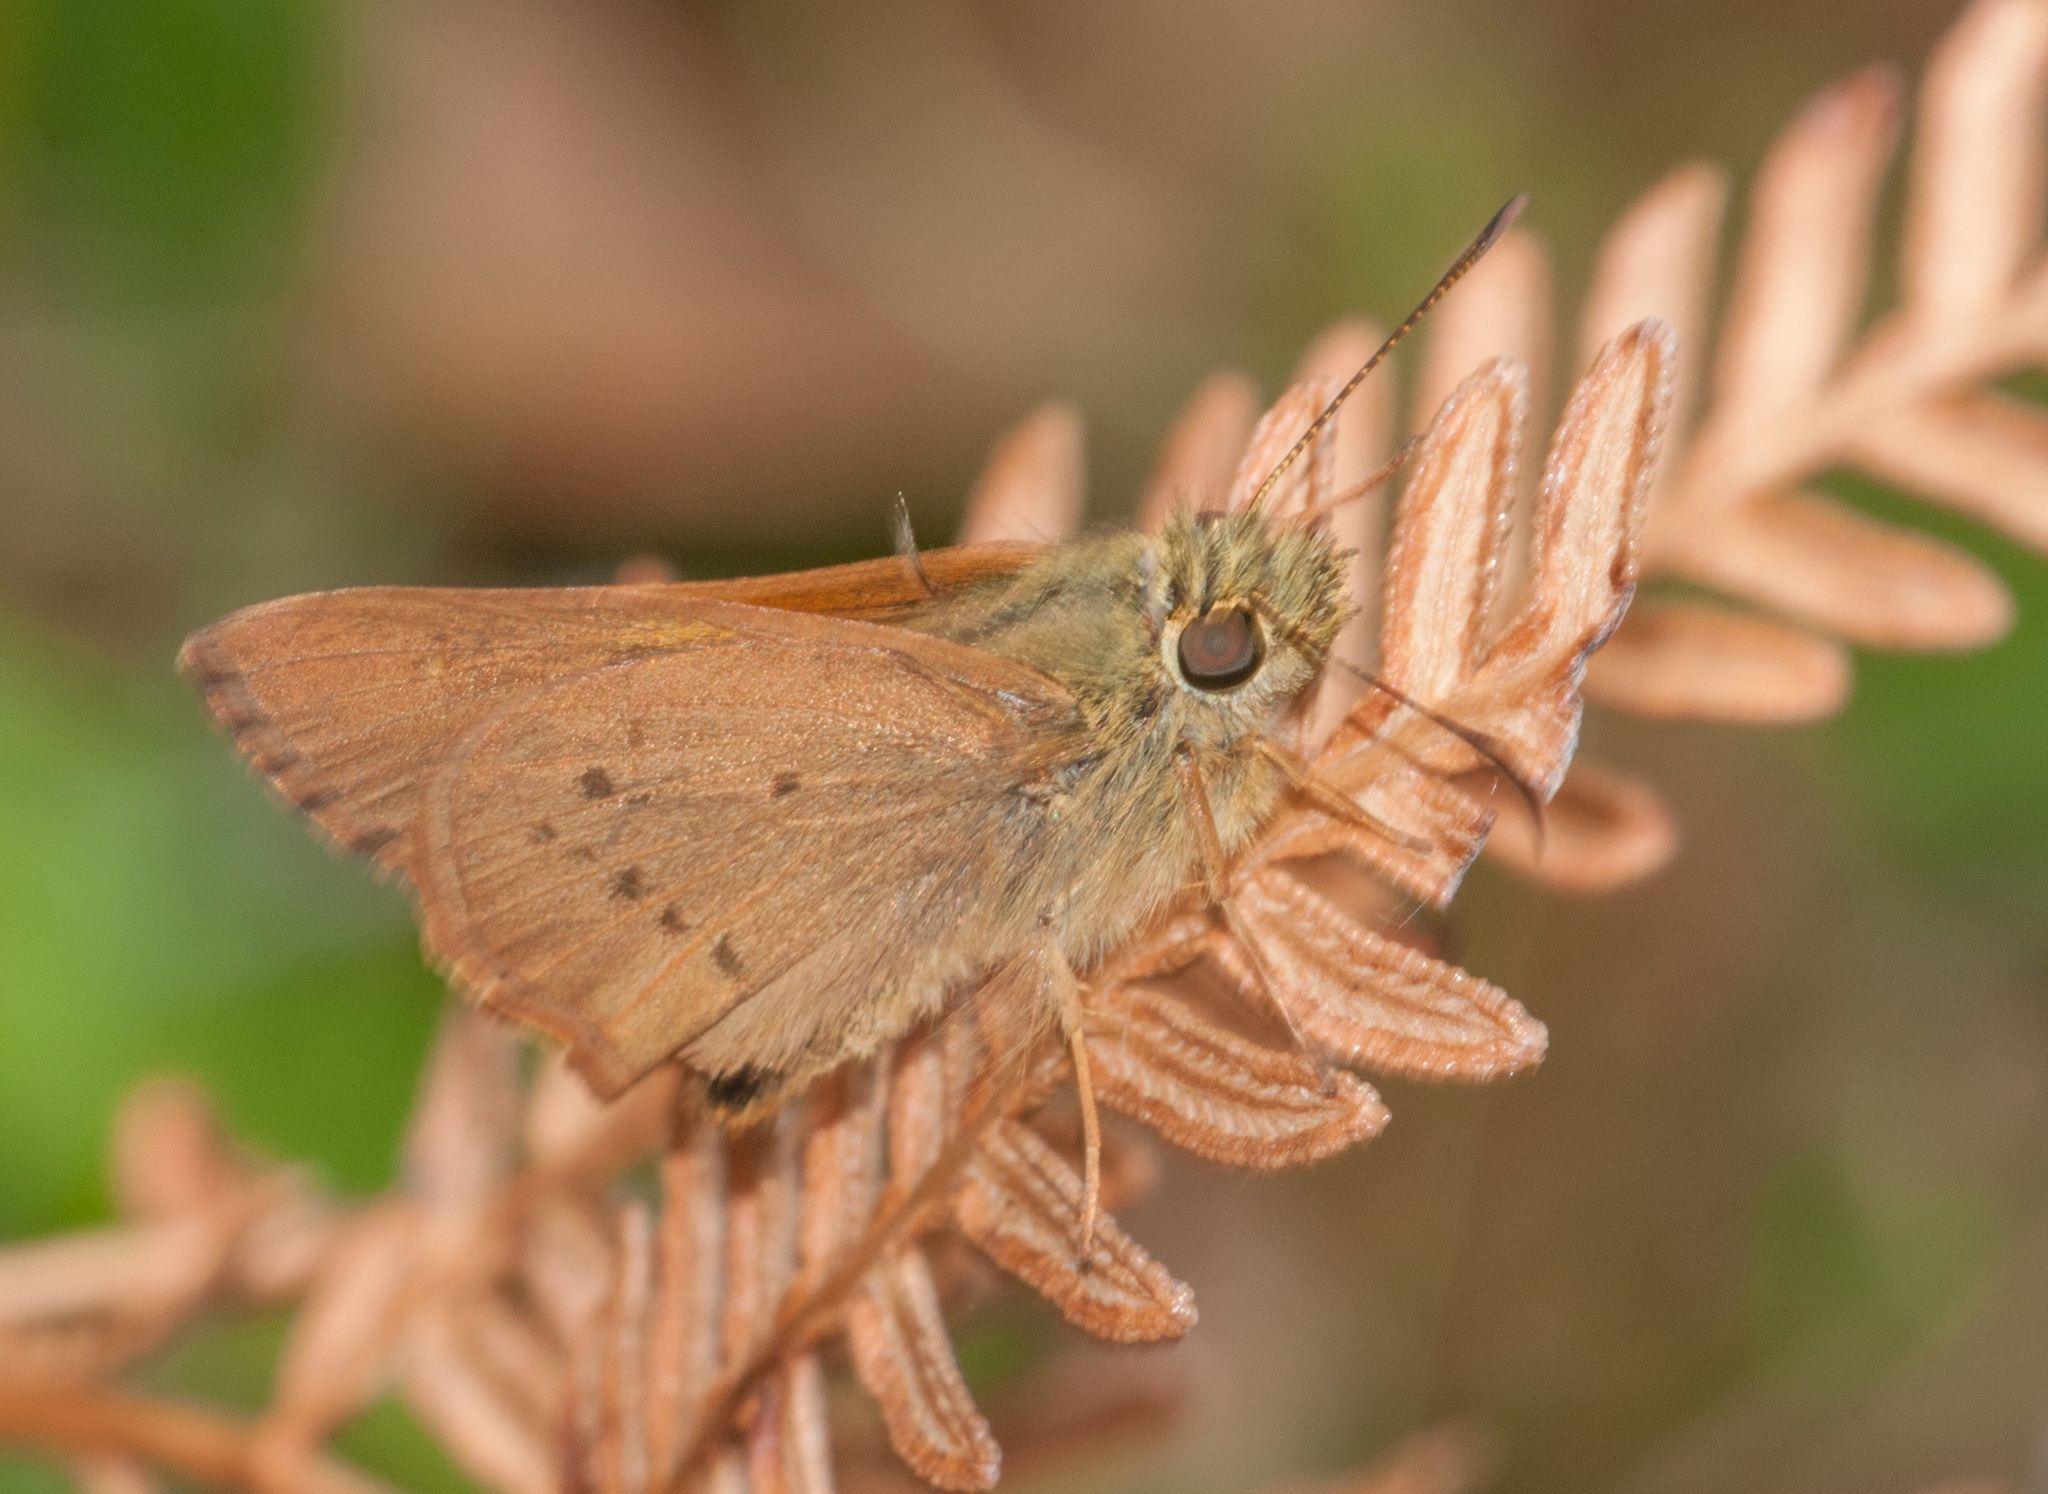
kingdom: Animalia
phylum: Arthropoda
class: Insecta
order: Lepidoptera
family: Hesperiidae
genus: Toxidia
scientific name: Toxidia
